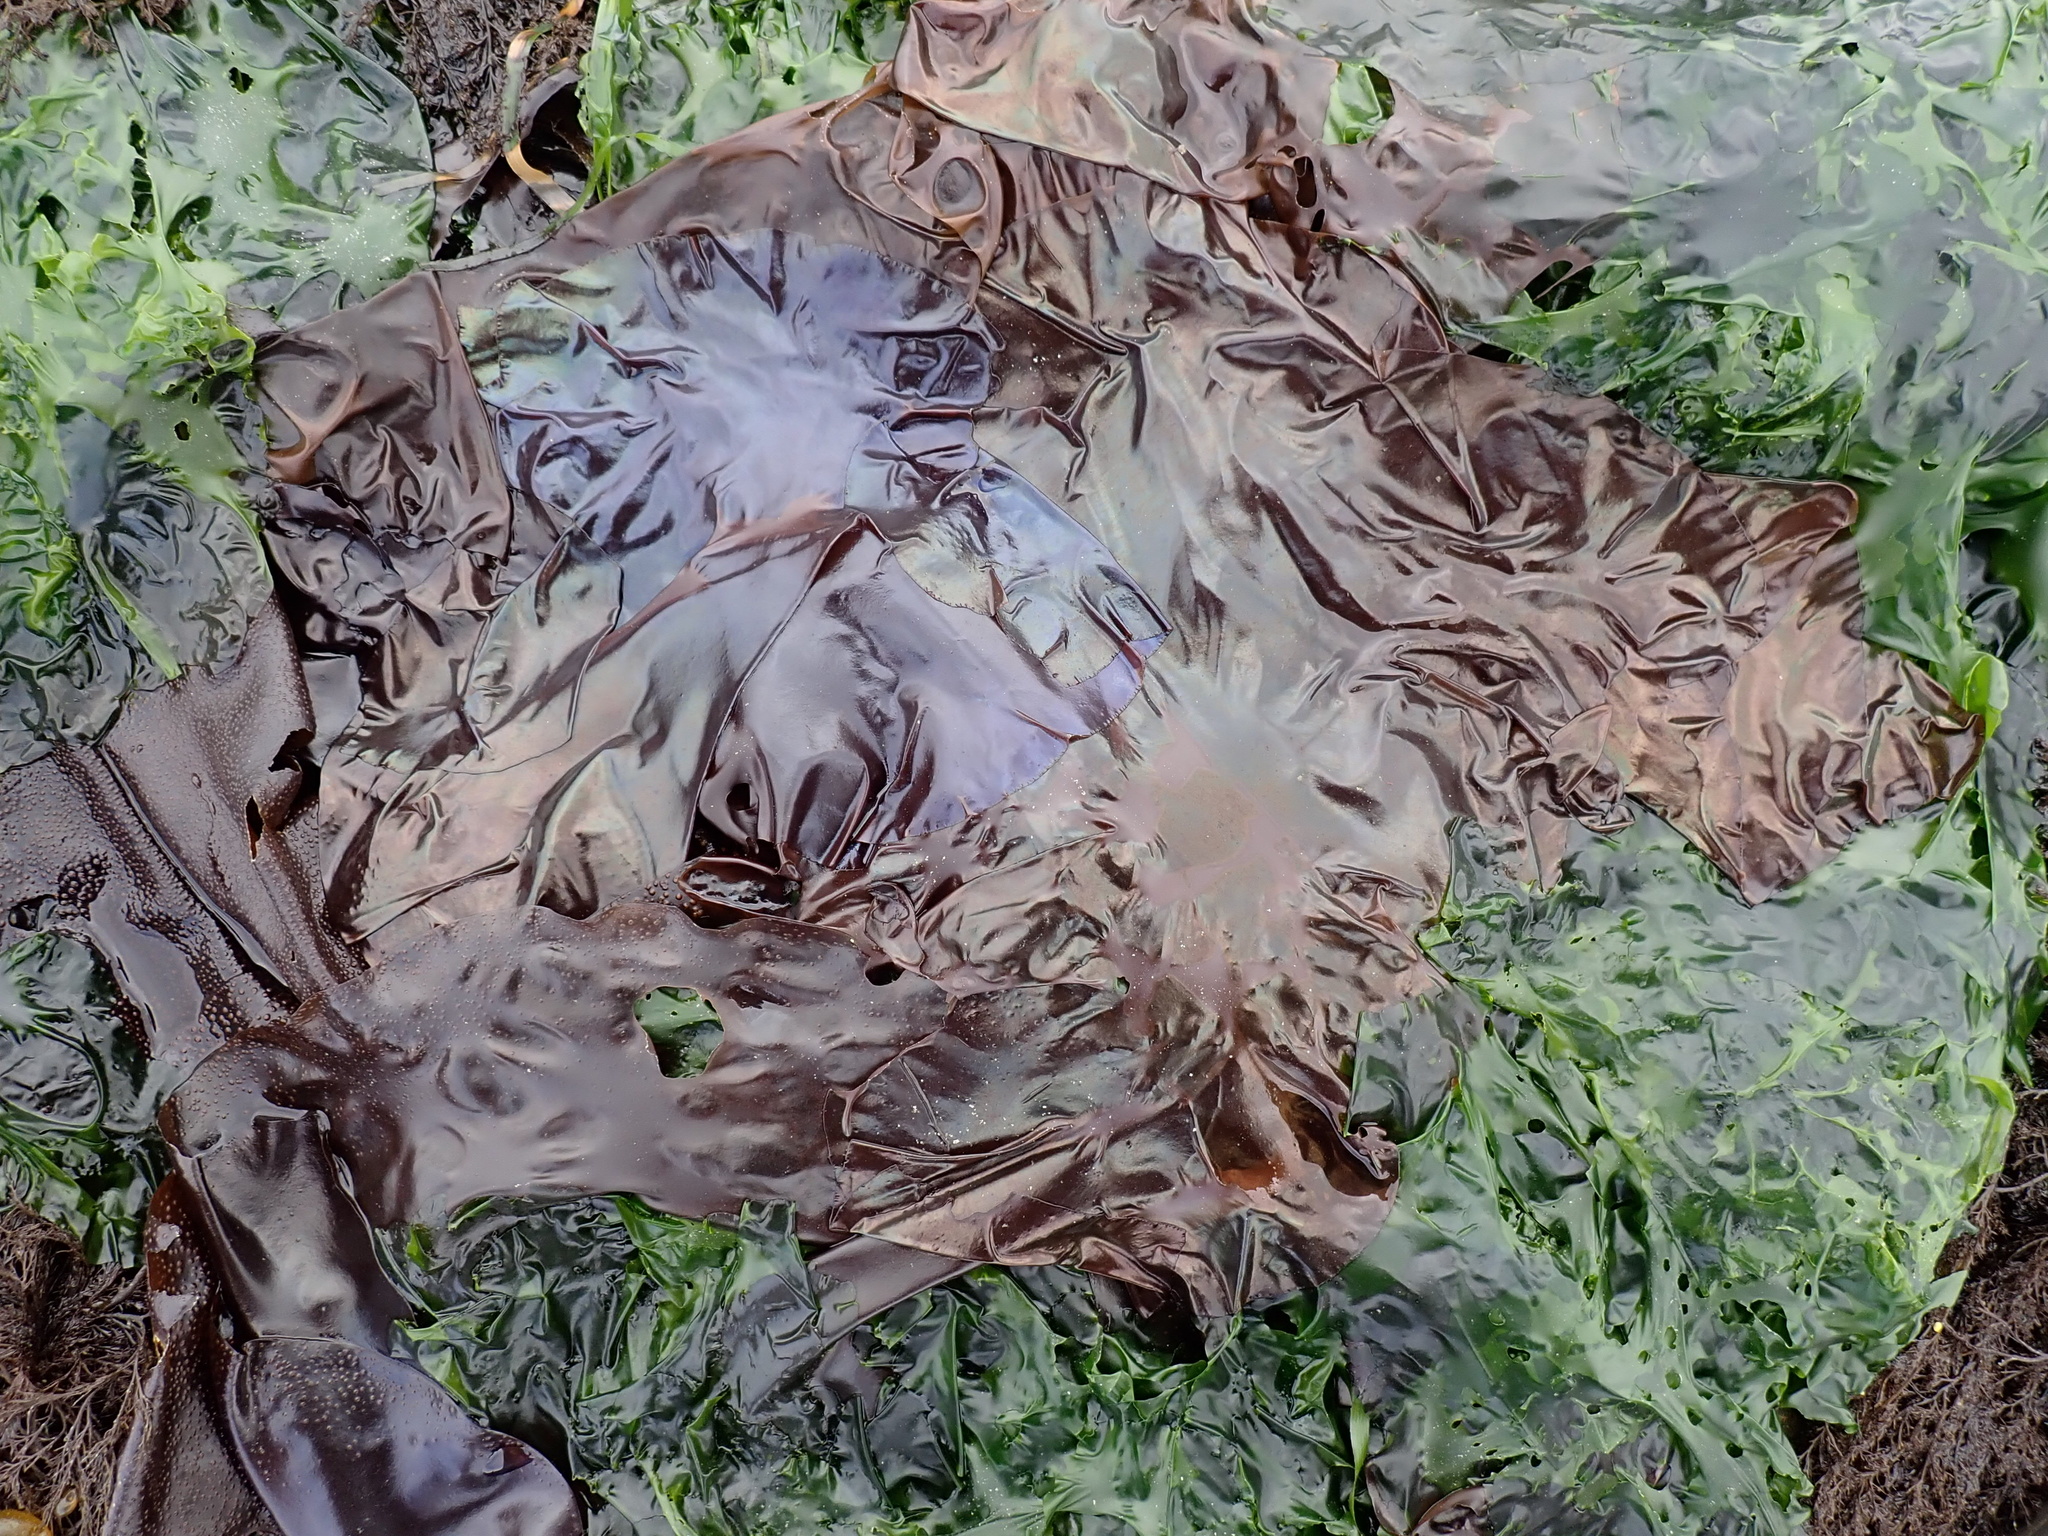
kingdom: Plantae
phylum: Rhodophyta
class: Florideophyceae
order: Gigartinales
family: Gigartinaceae
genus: Mazzaella
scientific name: Mazzaella splendens
